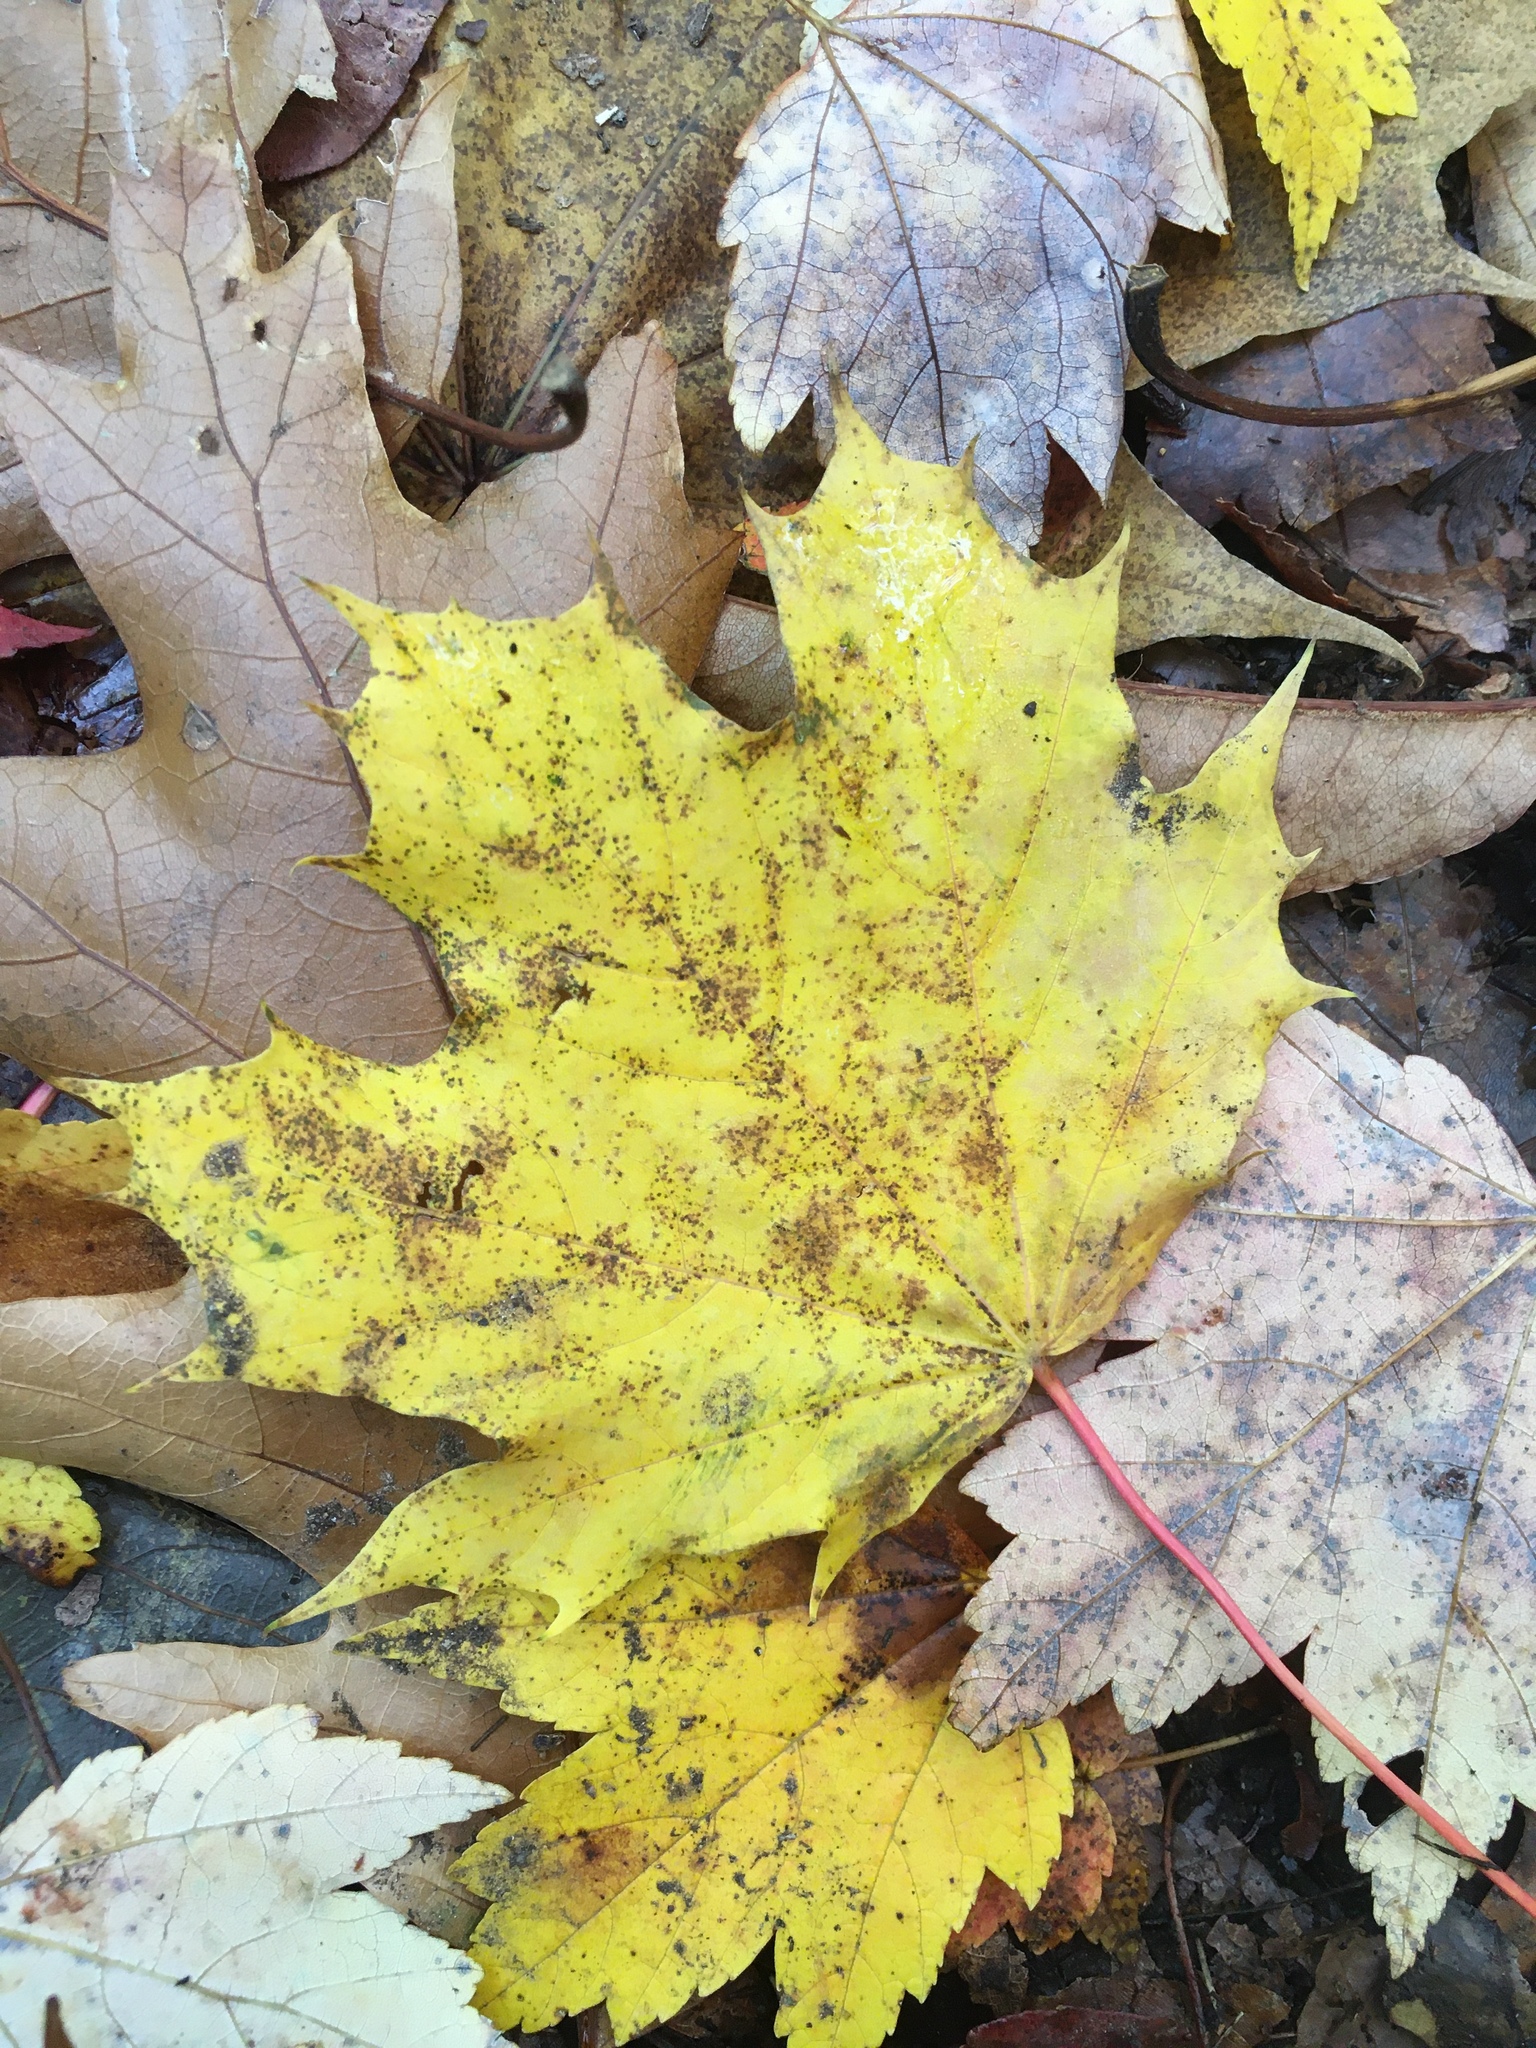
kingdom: Plantae
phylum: Tracheophyta
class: Magnoliopsida
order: Sapindales
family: Sapindaceae
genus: Acer
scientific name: Acer platanoides
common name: Norway maple
